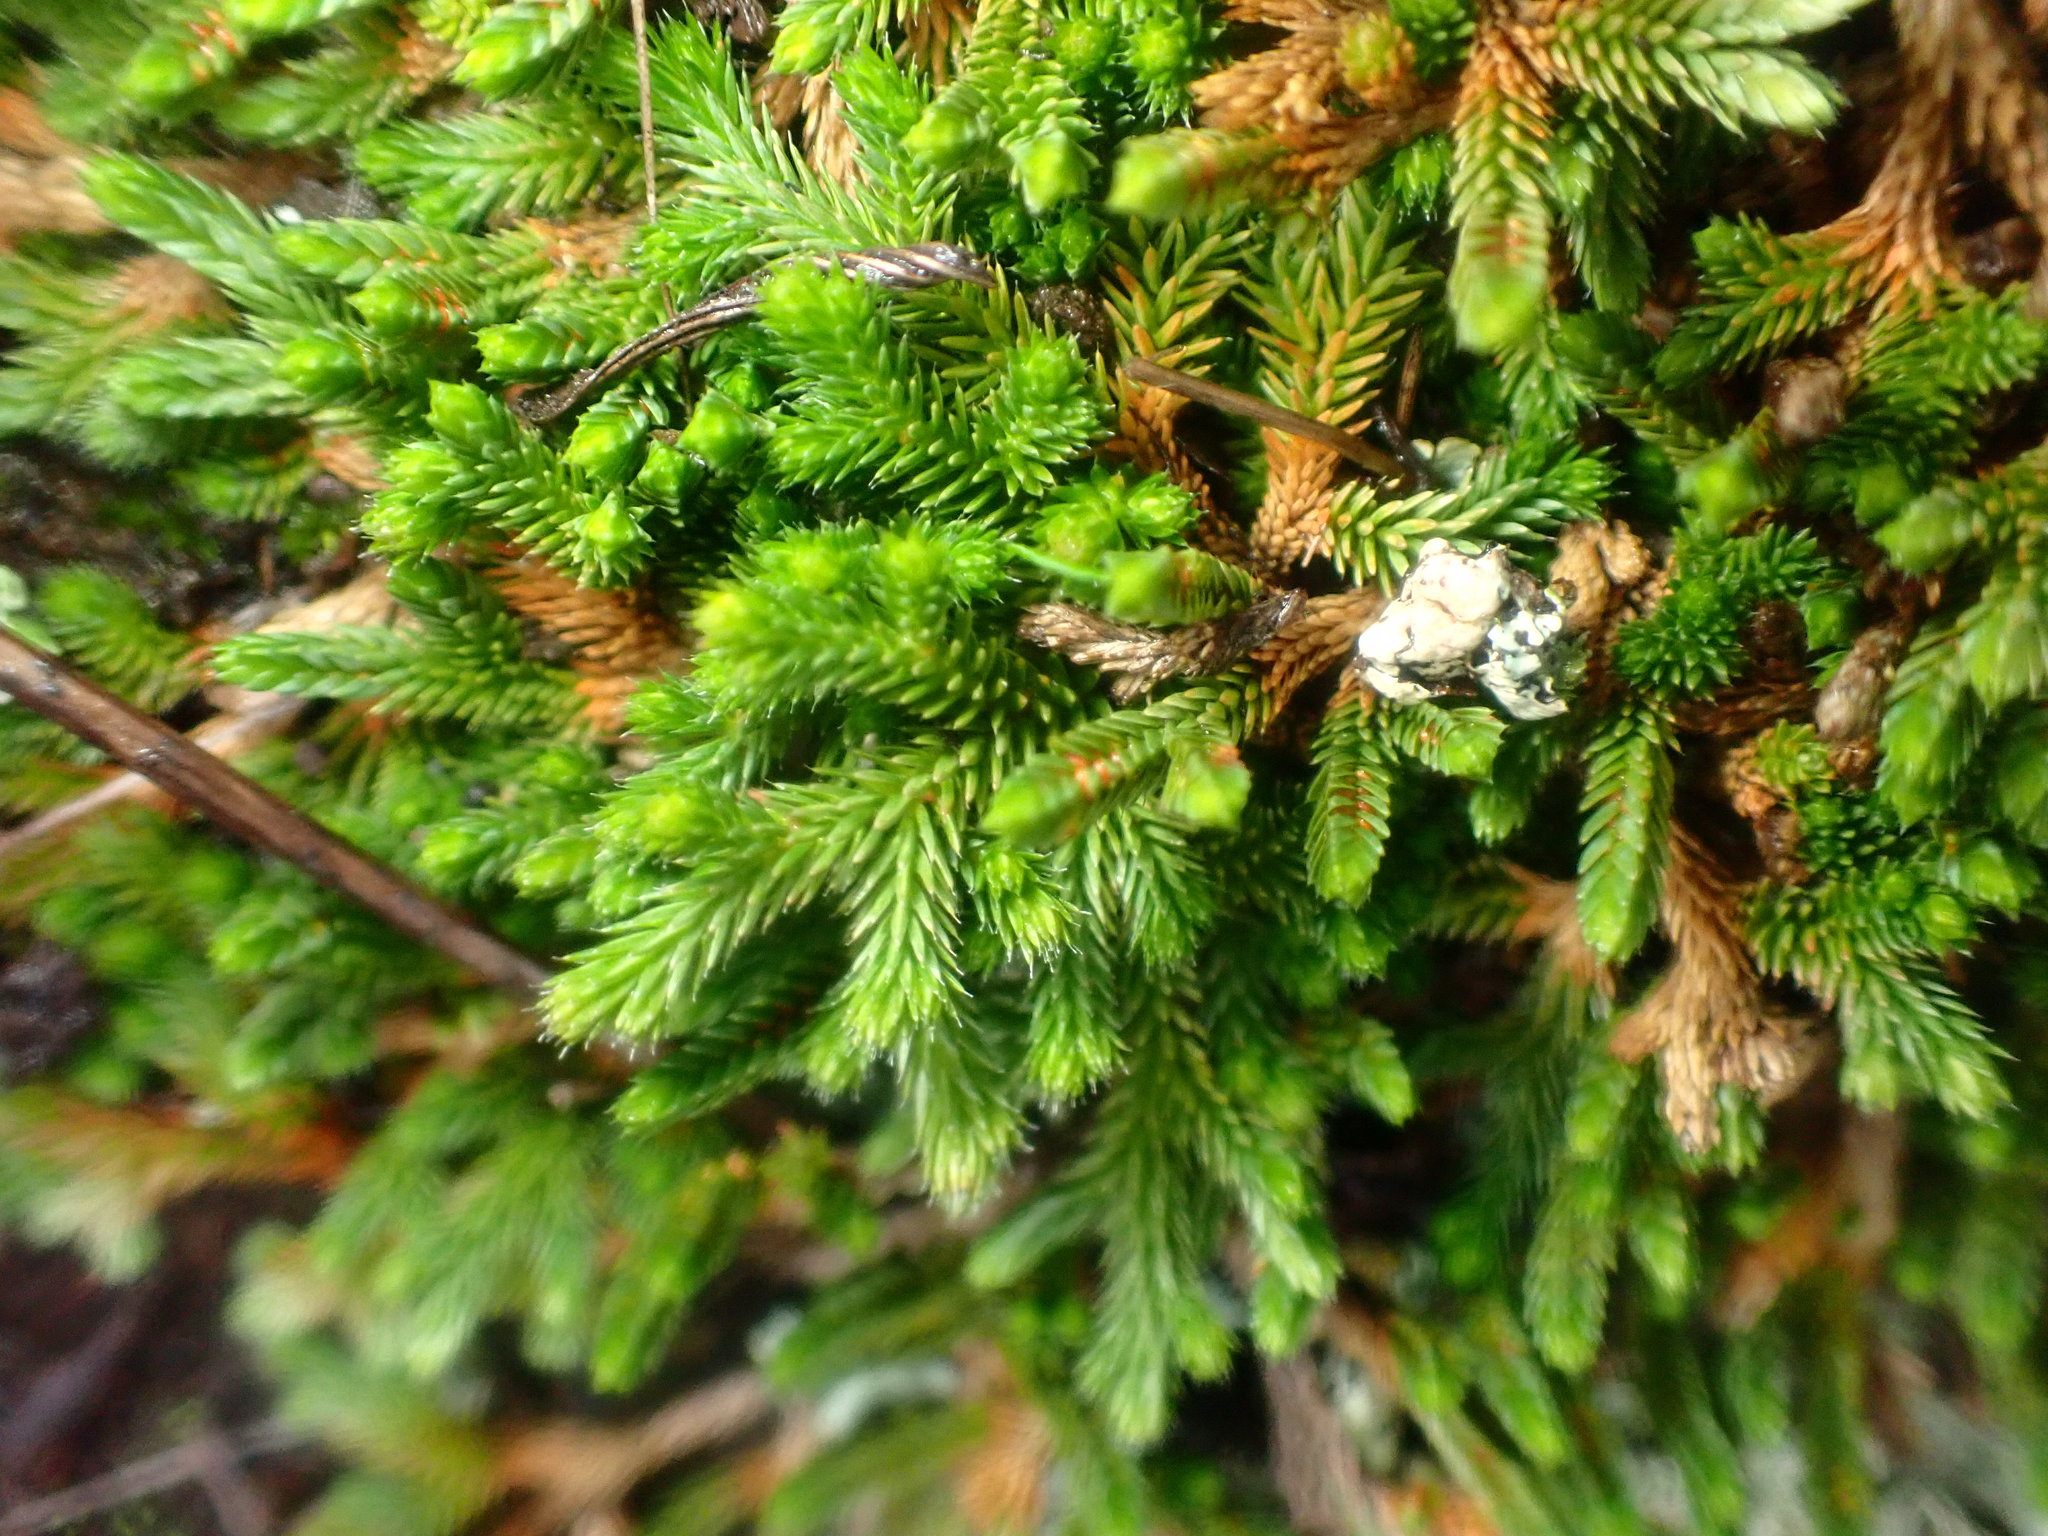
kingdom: Plantae
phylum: Tracheophyta
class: Lycopodiopsida
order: Selaginellales
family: Selaginellaceae
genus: Selaginella
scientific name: Selaginella wallacei
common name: Wallace's selaginella
